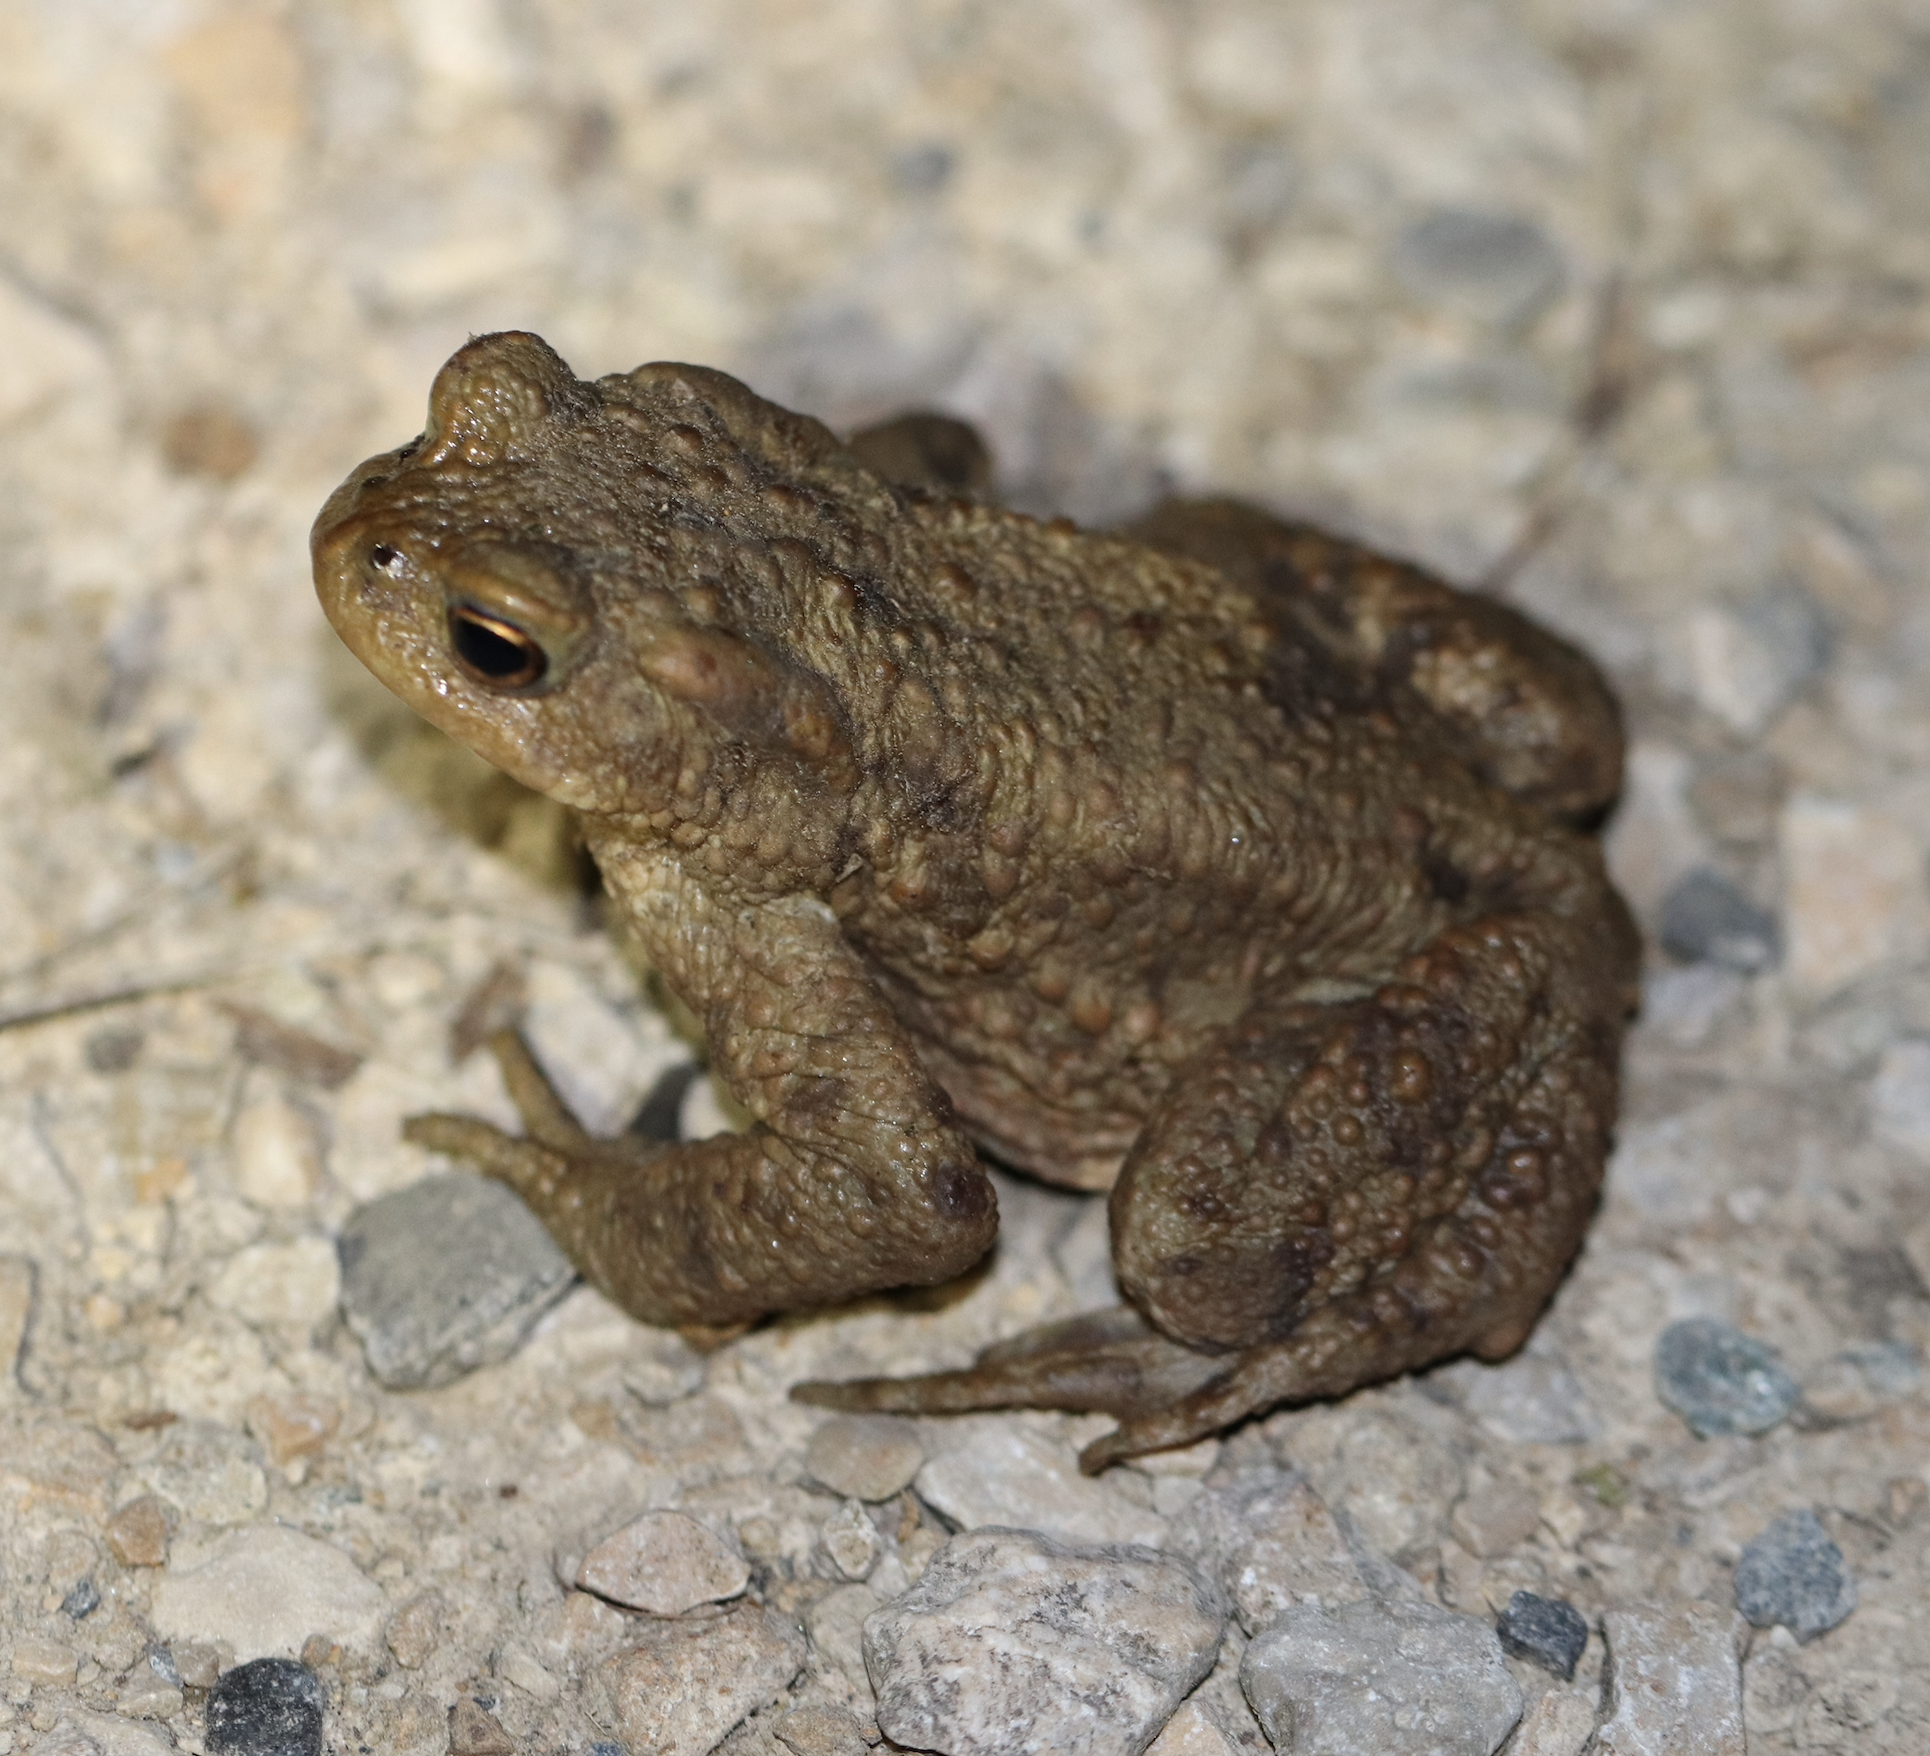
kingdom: Animalia
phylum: Chordata
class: Amphibia
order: Anura
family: Bufonidae
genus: Bufo
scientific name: Bufo bufo
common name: Common toad
